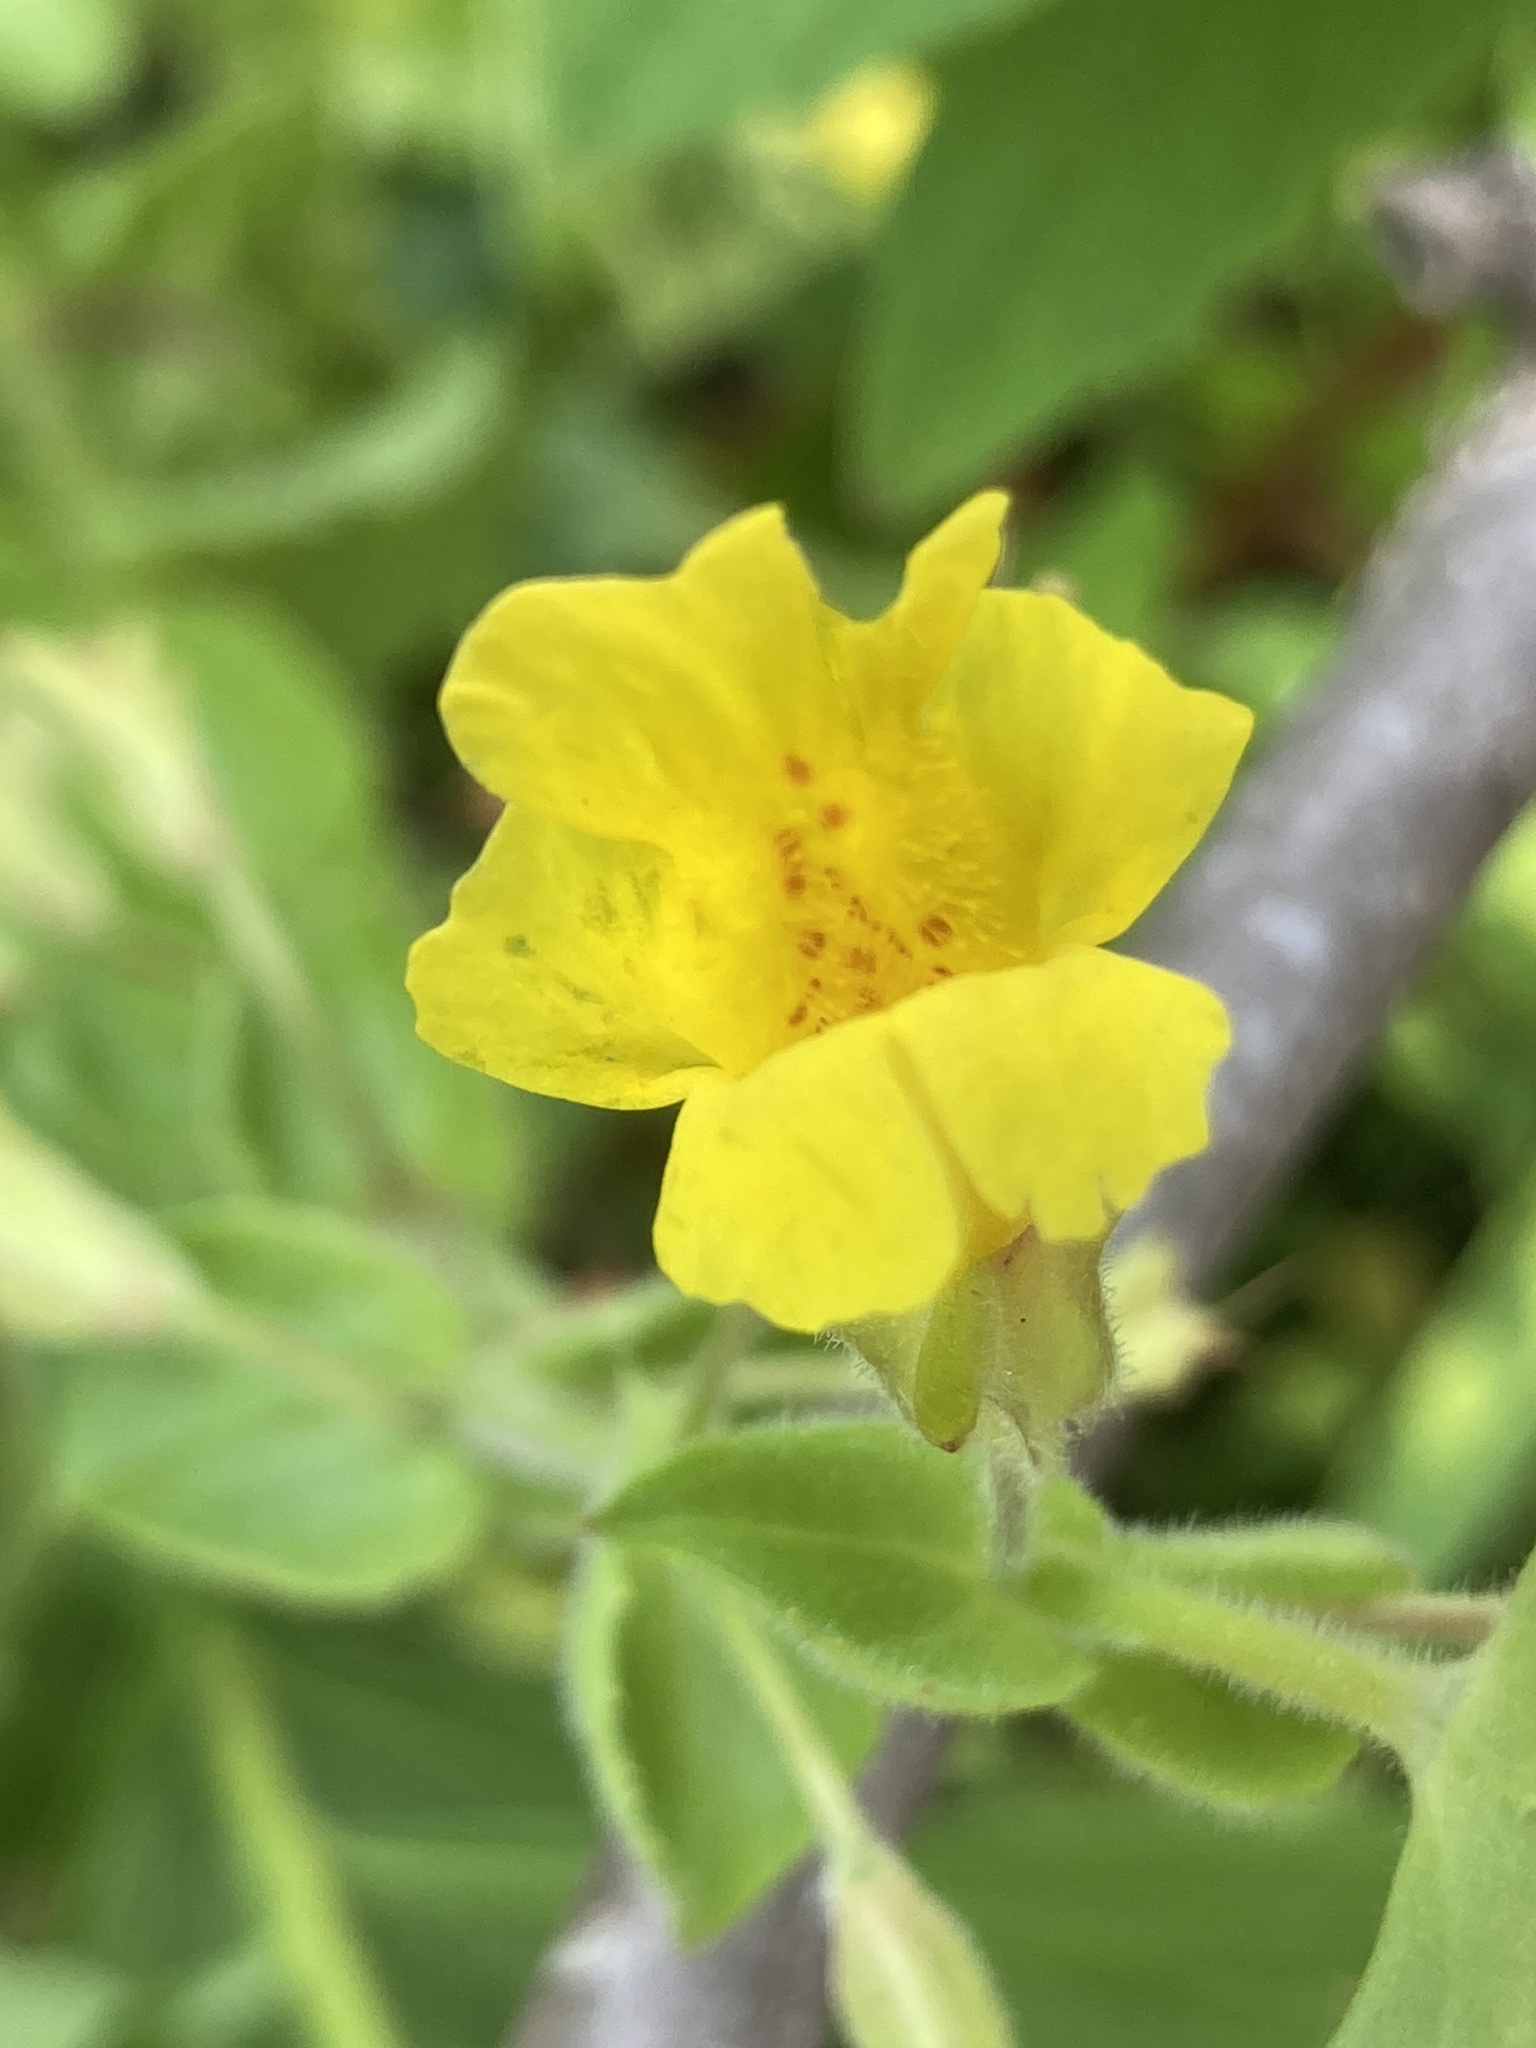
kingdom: Plantae
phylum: Tracheophyta
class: Magnoliopsida
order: Lamiales
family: Phrymaceae
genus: Erythranthe
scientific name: Erythranthe michiganensis
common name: Michigan monkey-flower
